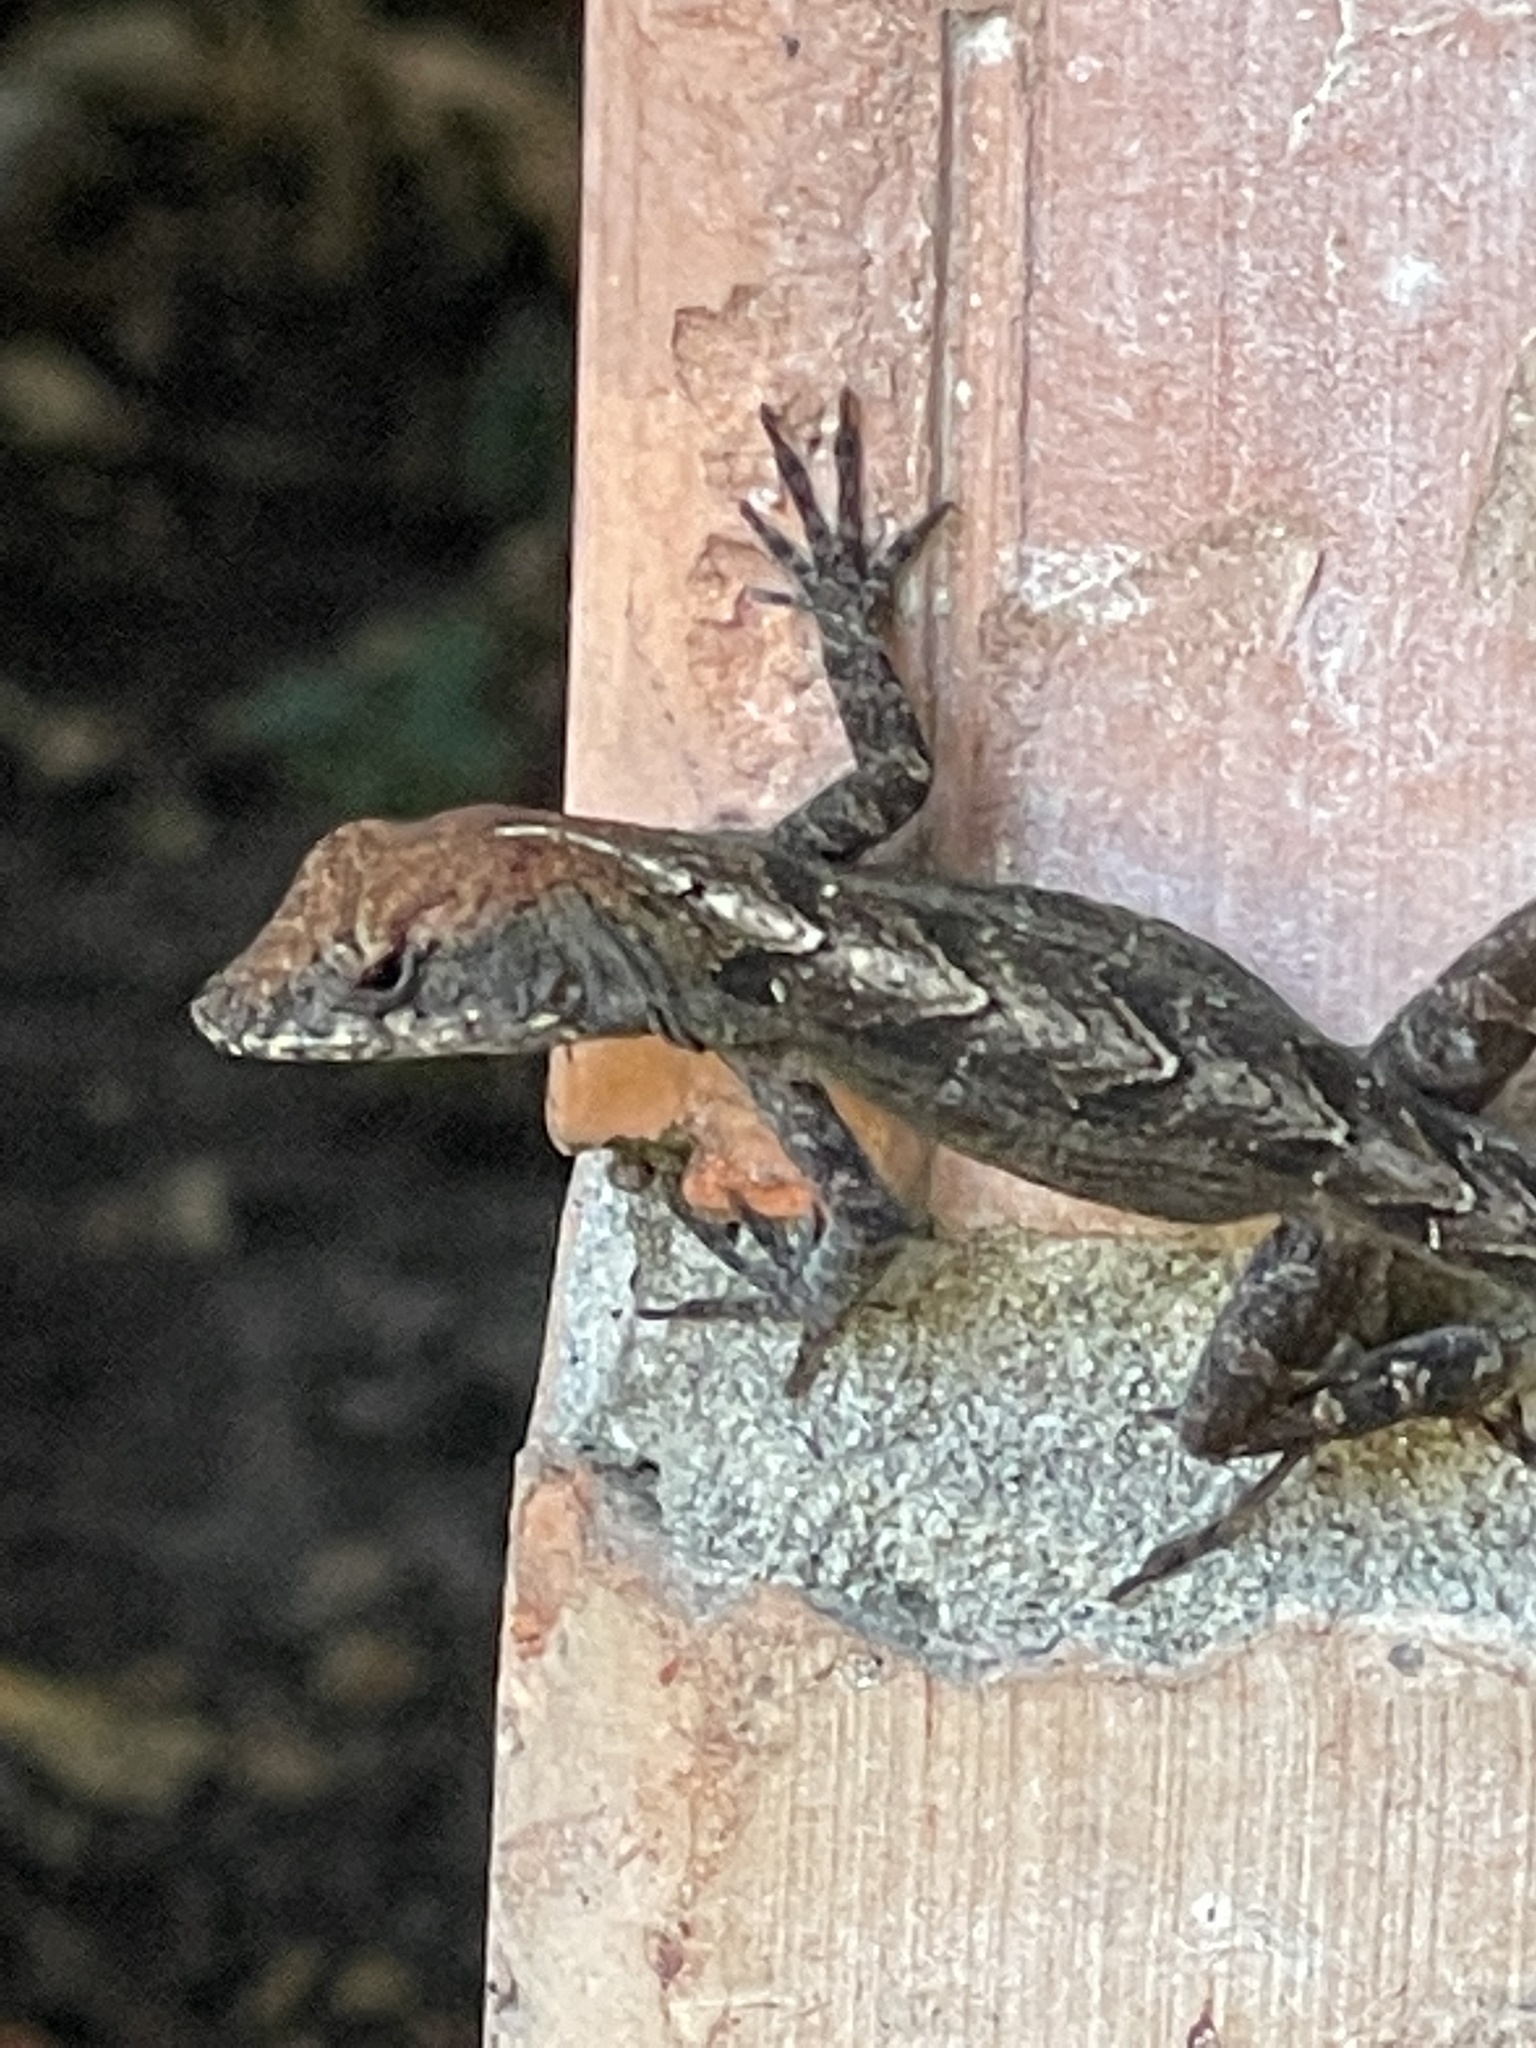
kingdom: Animalia
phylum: Chordata
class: Squamata
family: Dactyloidae
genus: Anolis
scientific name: Anolis sagrei
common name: Brown anole
